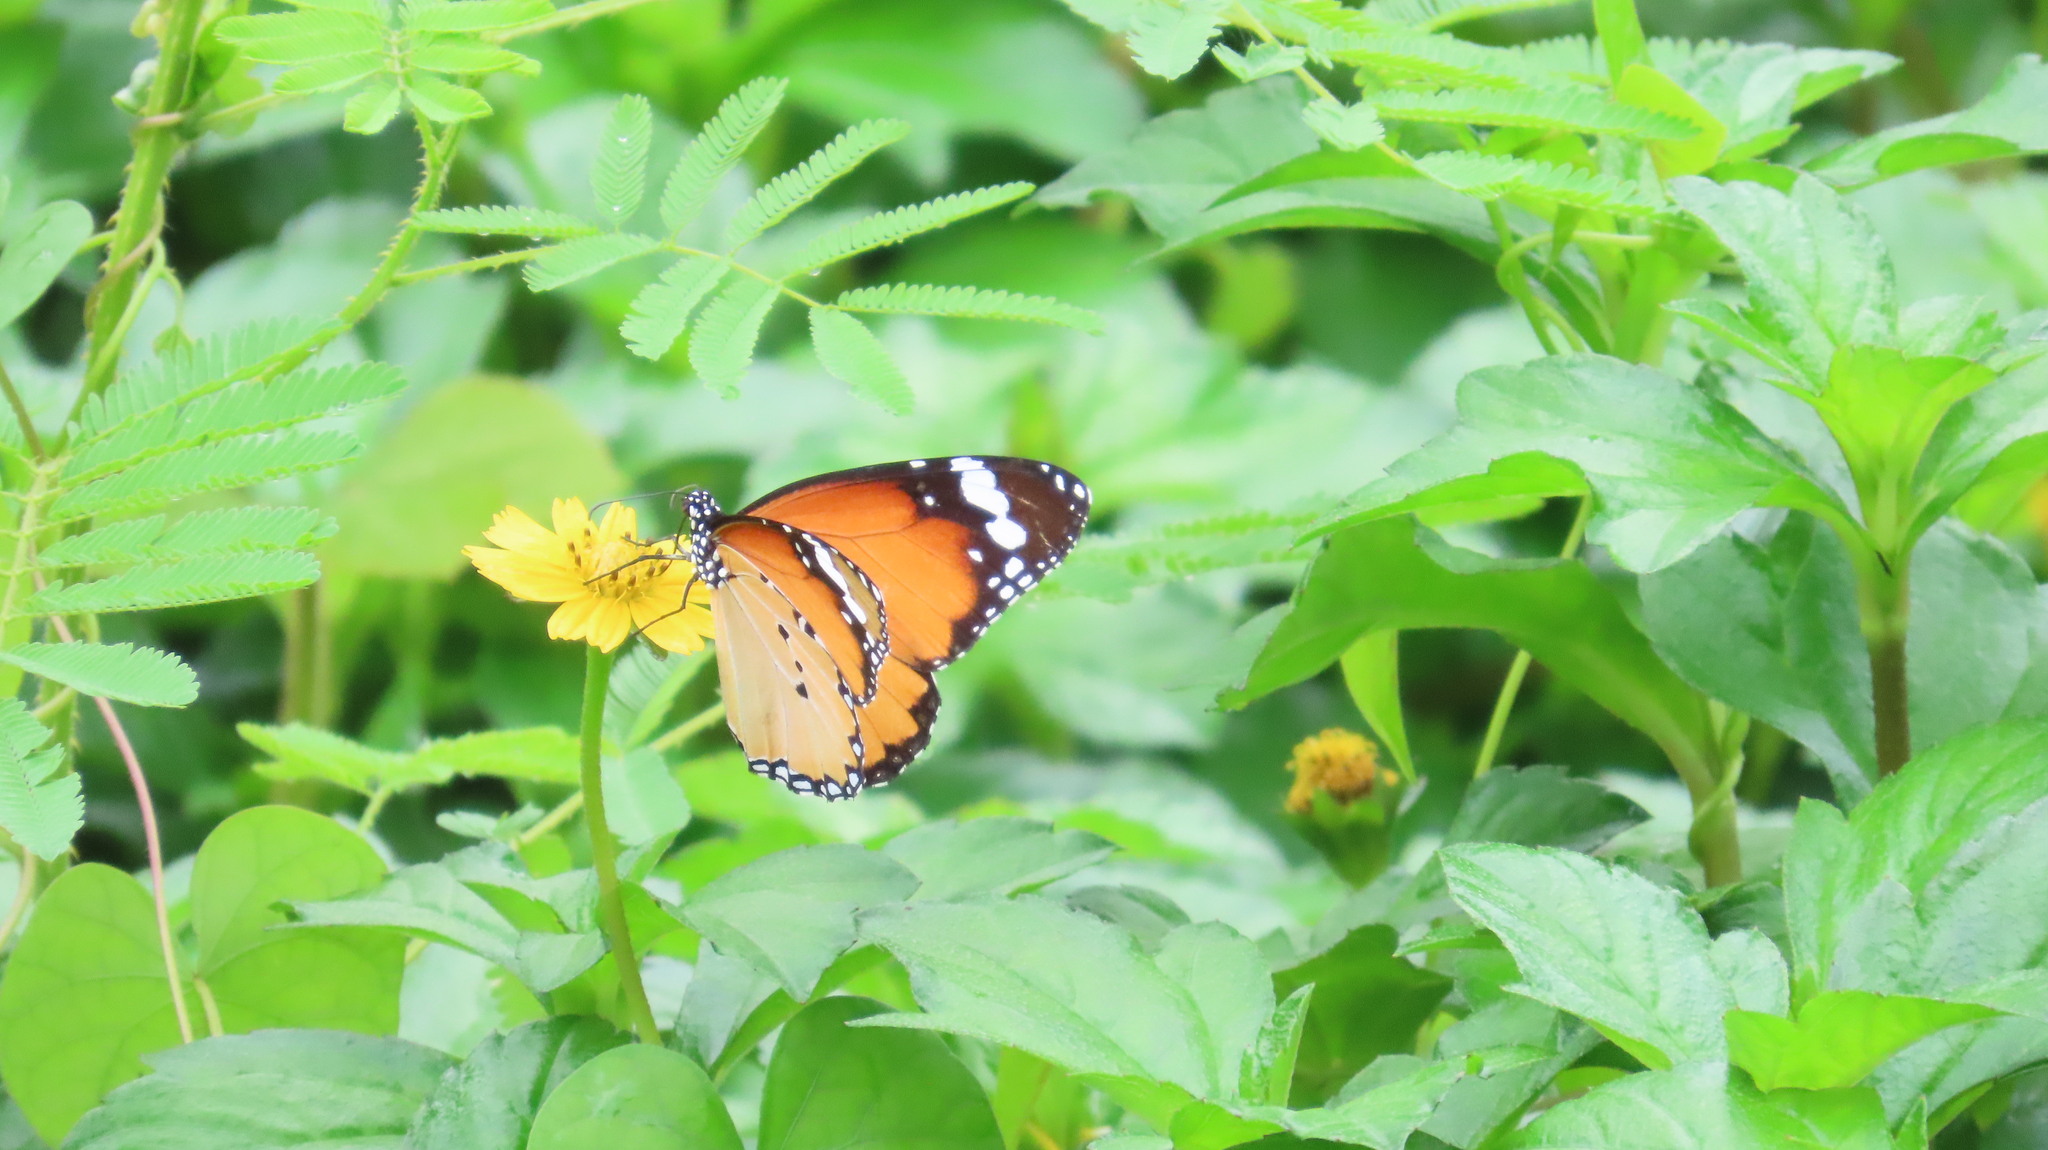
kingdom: Animalia
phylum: Arthropoda
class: Insecta
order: Lepidoptera
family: Nymphalidae
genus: Danaus
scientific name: Danaus chrysippus
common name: Plain tiger
